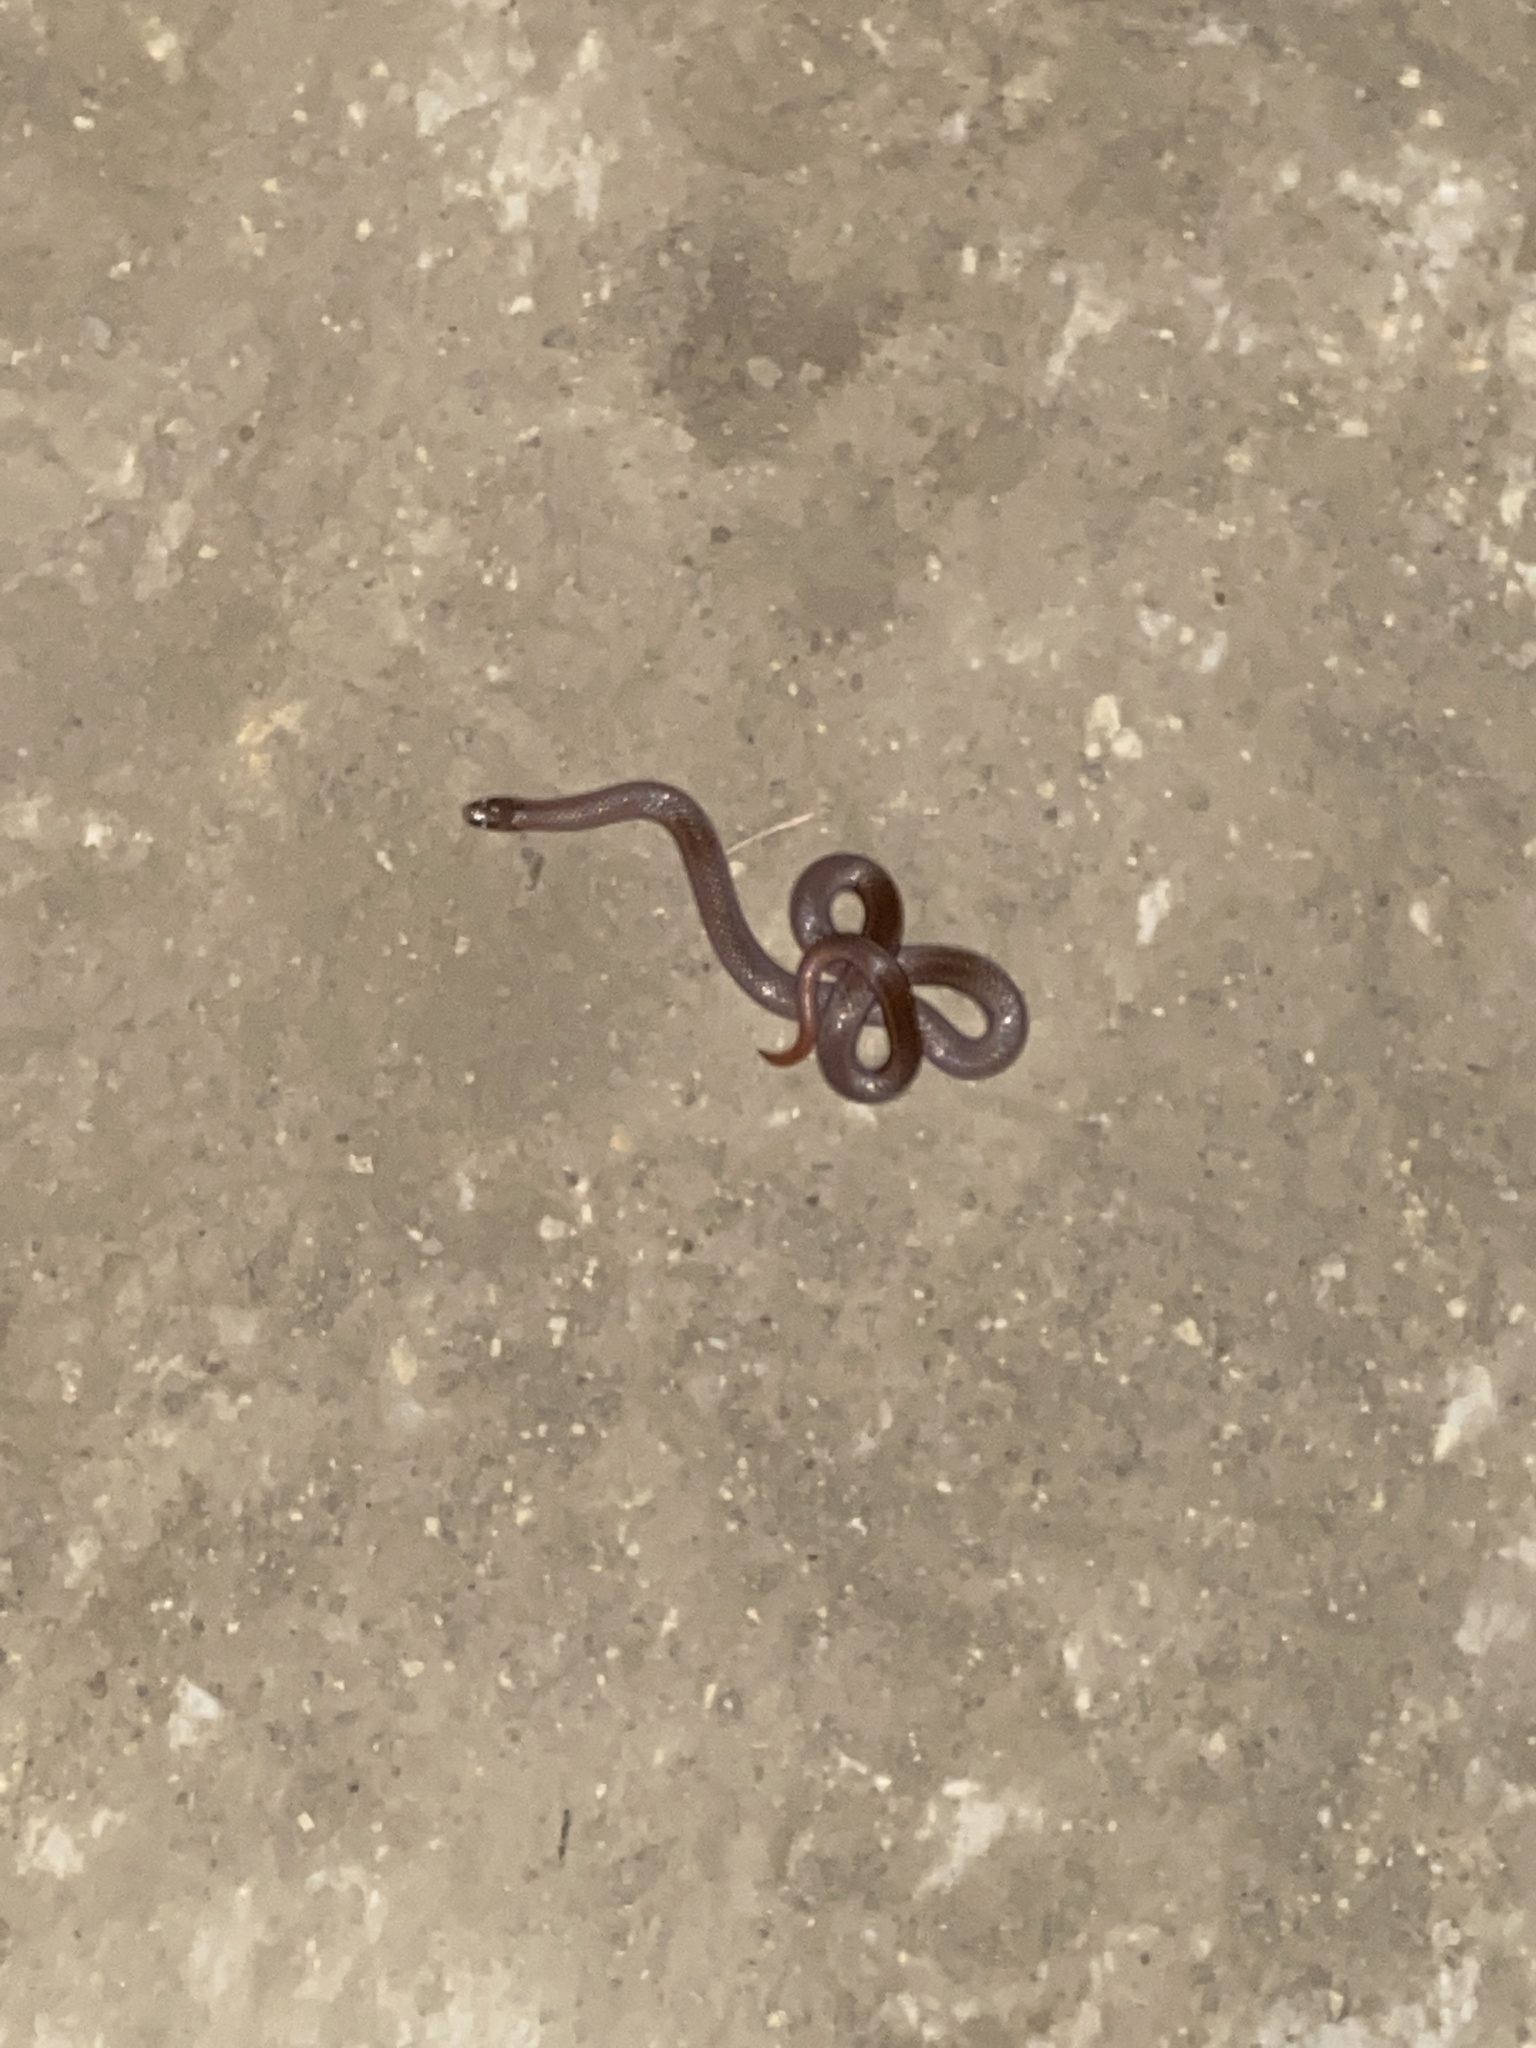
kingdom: Animalia
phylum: Chordata
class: Squamata
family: Colubridae
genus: Contia
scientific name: Contia tenuis
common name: Sharptail snake
